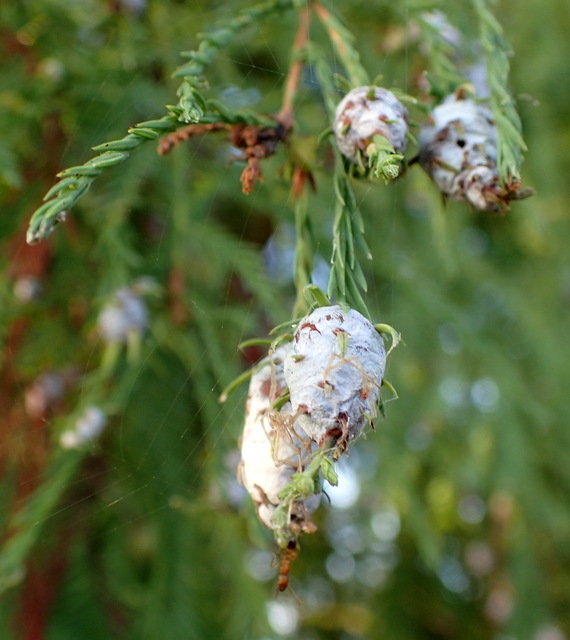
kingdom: Animalia
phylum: Arthropoda
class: Insecta
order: Diptera
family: Cecidomyiidae
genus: Taxodiomyia
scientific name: Taxodiomyia cupressiananassa
